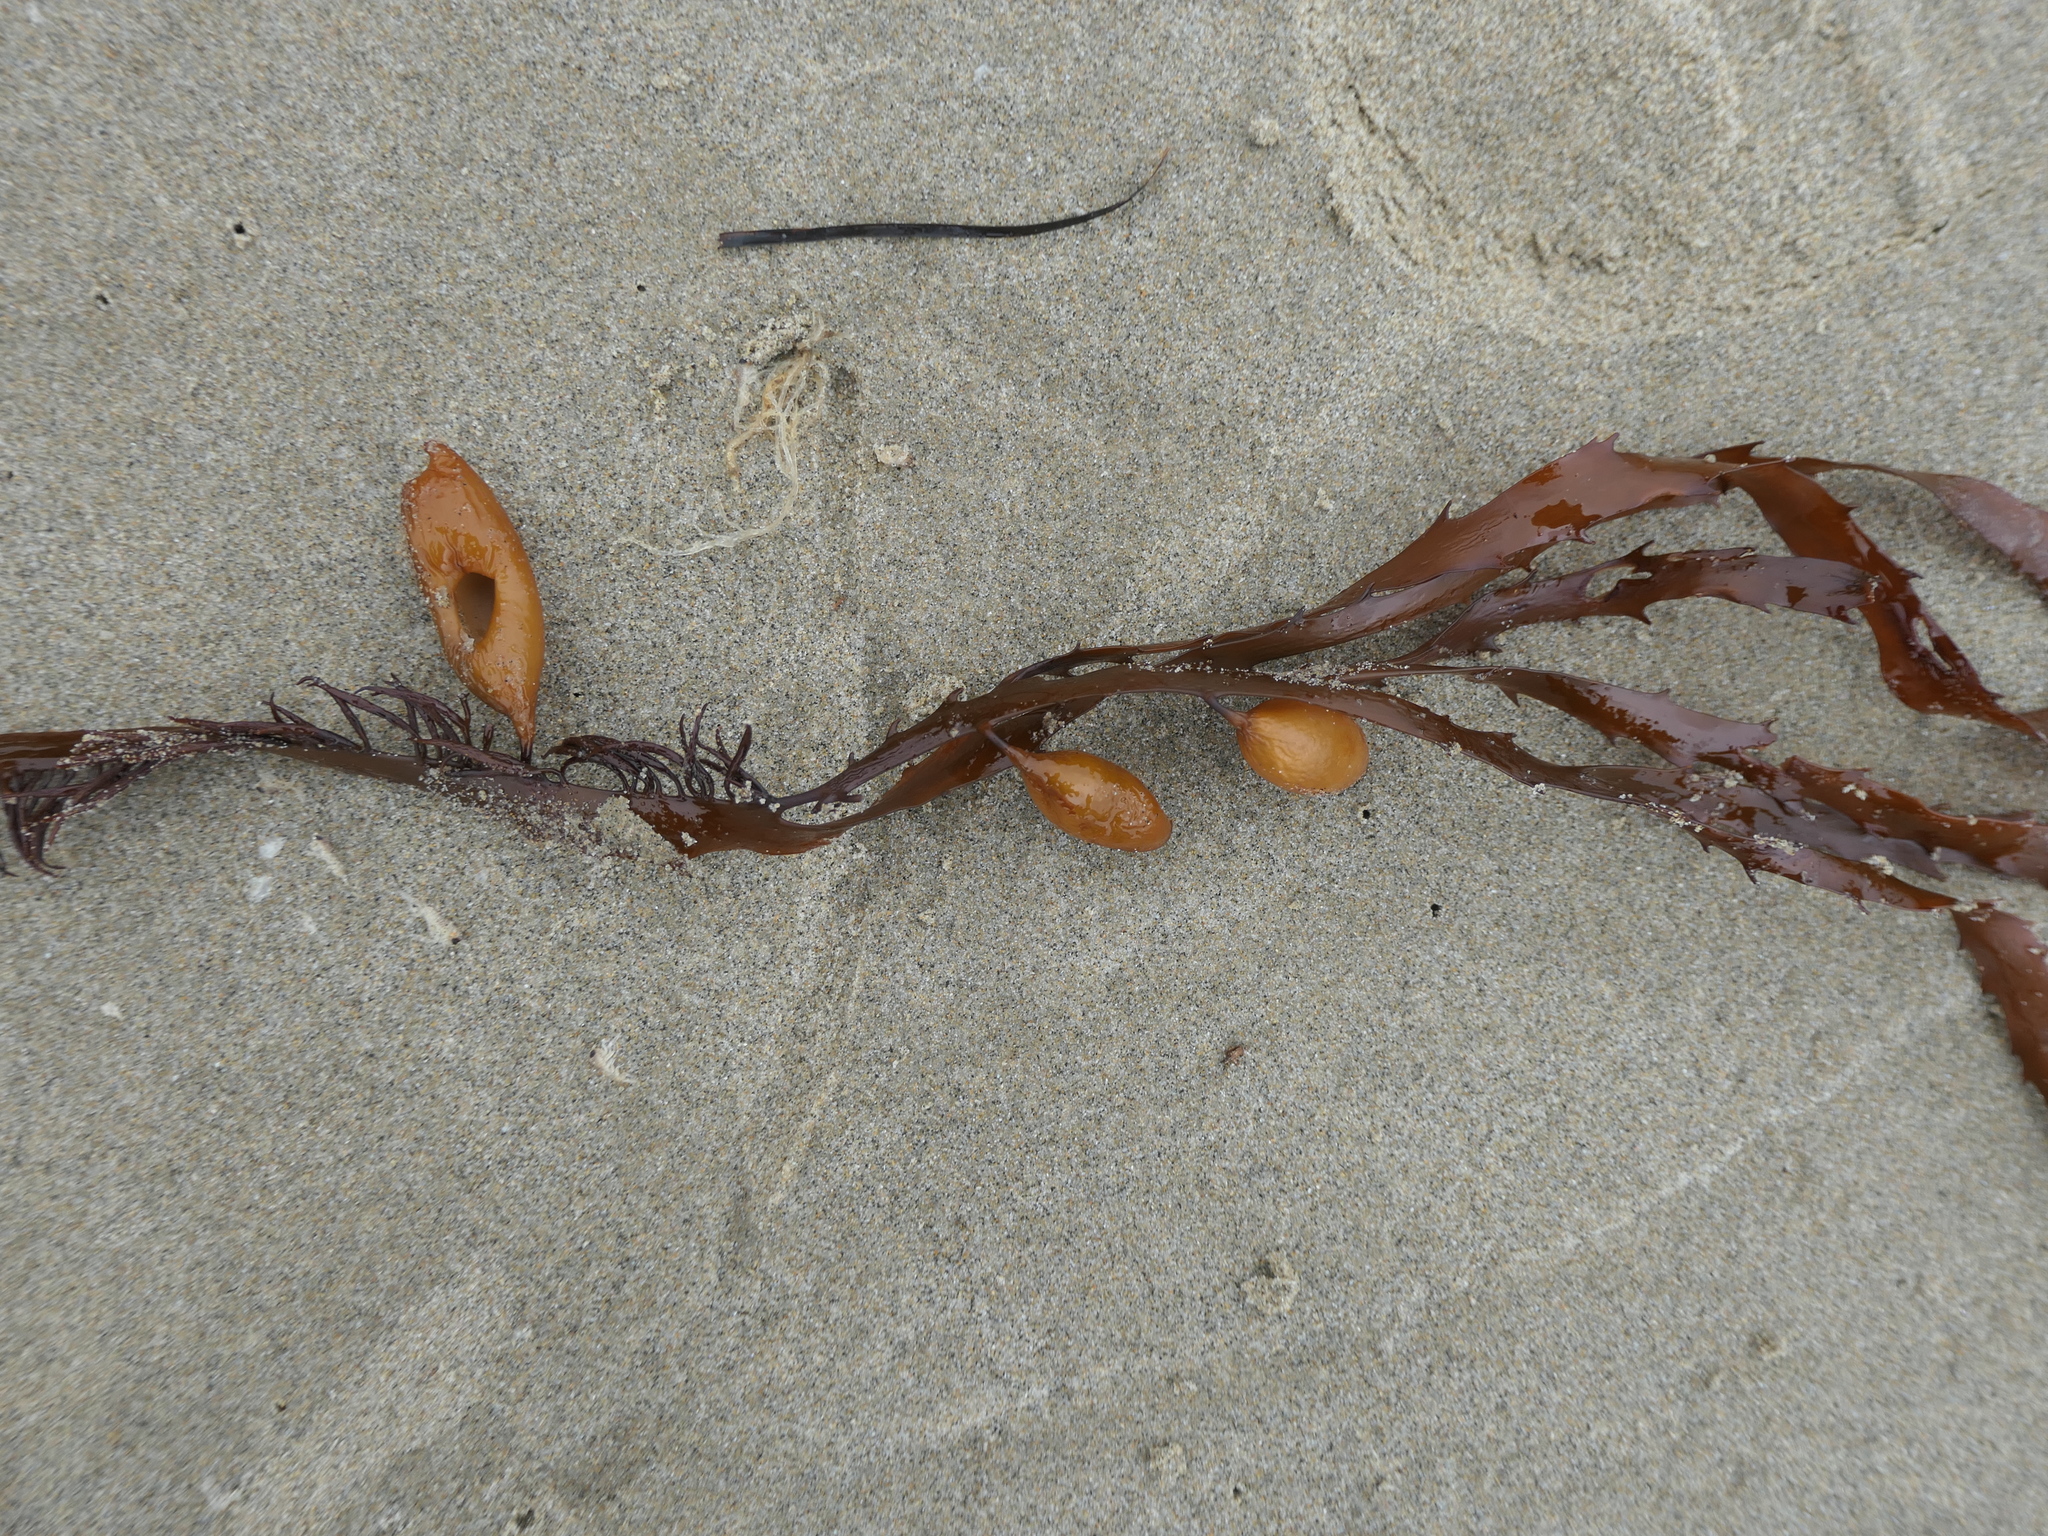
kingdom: Chromista
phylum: Ochrophyta
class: Phaeophyceae
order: Fucales
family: Seirococcaceae
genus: Marginariella
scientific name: Marginariella boryana
